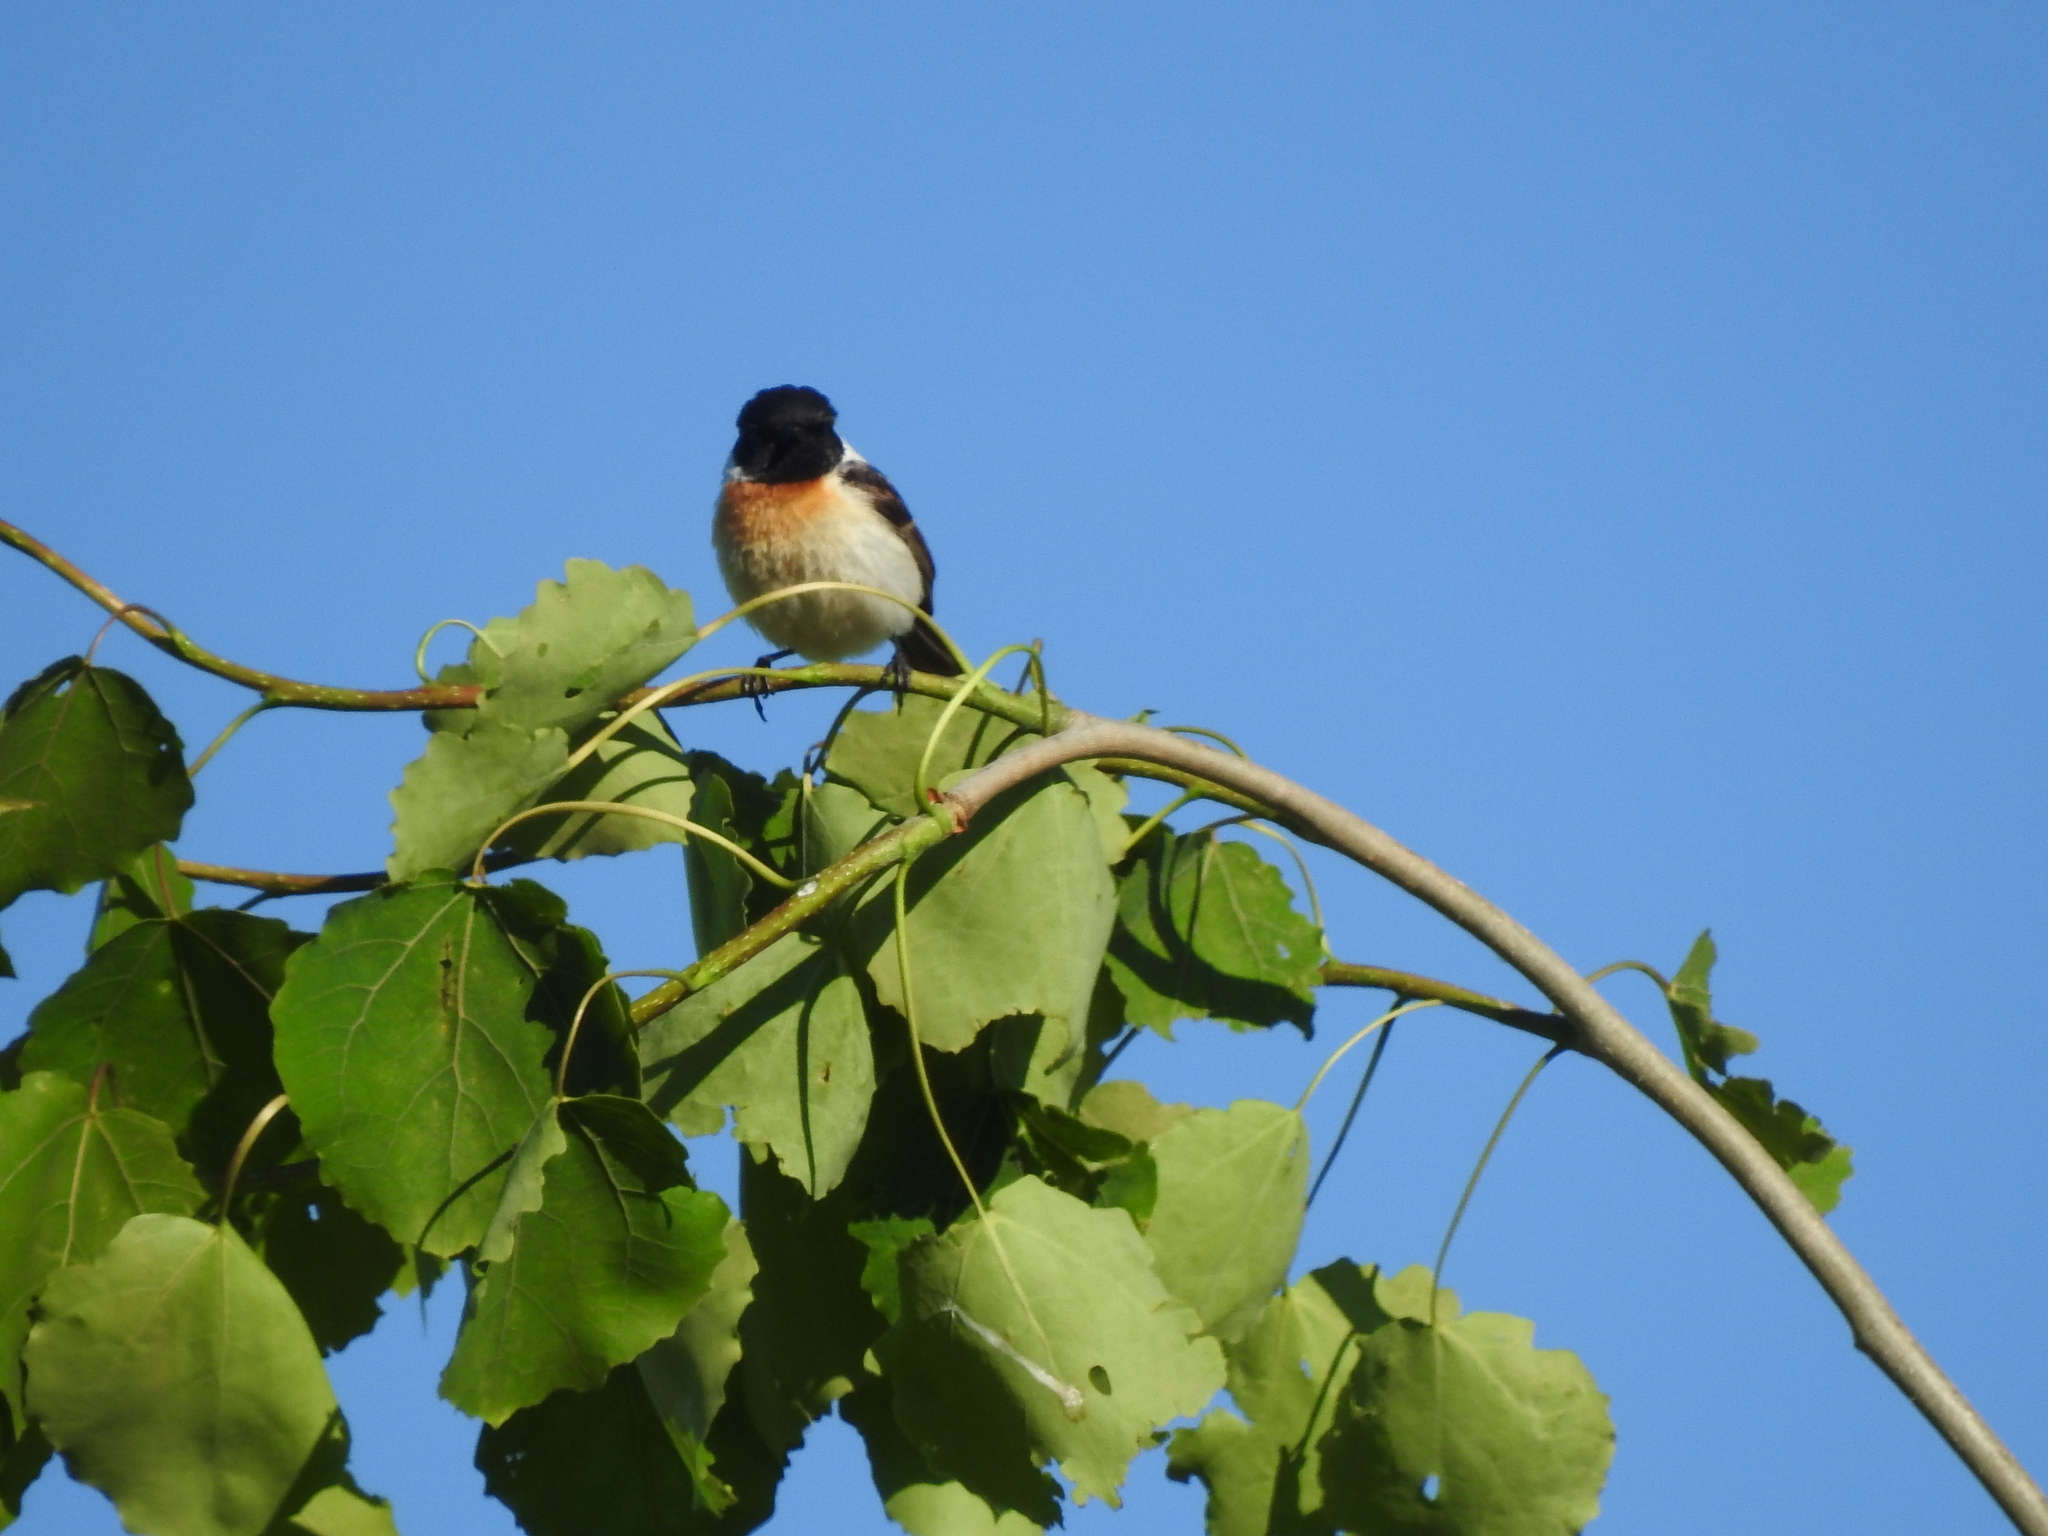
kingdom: Animalia
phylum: Chordata
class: Aves
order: Passeriformes
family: Muscicapidae
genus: Saxicola
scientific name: Saxicola maurus
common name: Siberian stonechat
